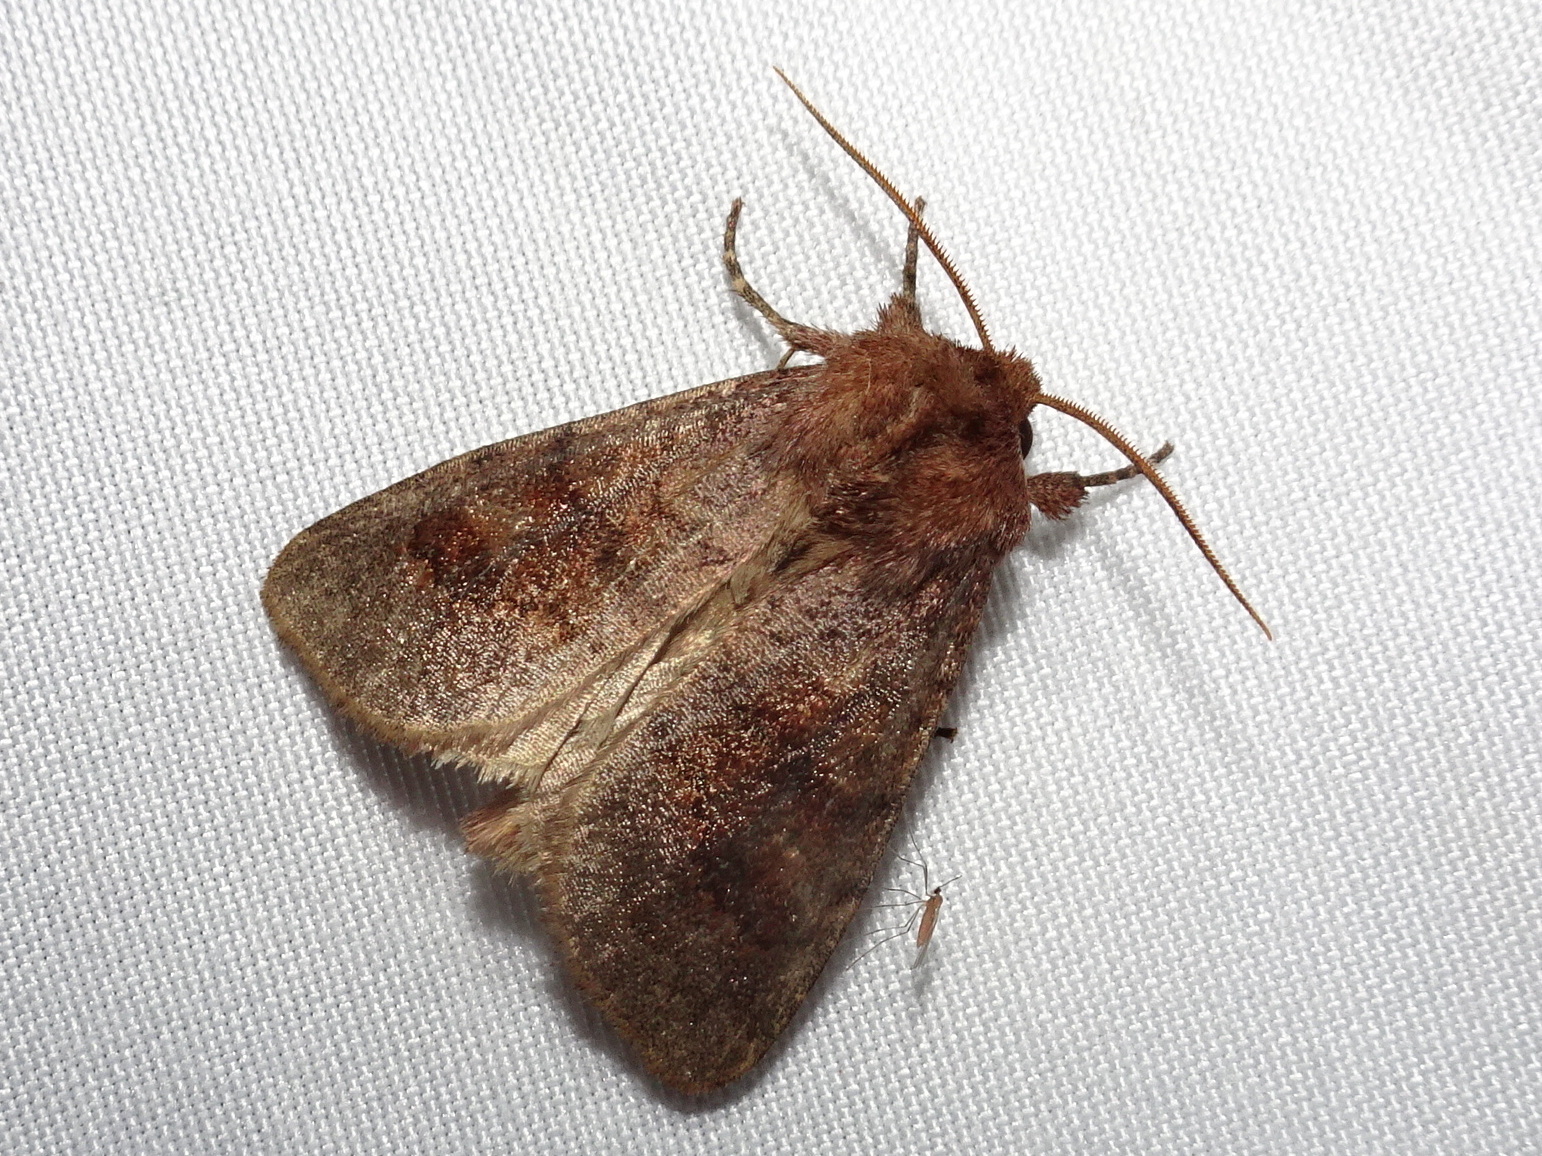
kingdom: Animalia
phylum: Arthropoda
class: Insecta
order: Lepidoptera
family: Noctuidae
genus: Nephelodes
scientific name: Nephelodes minians
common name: Bronzed cutworm
